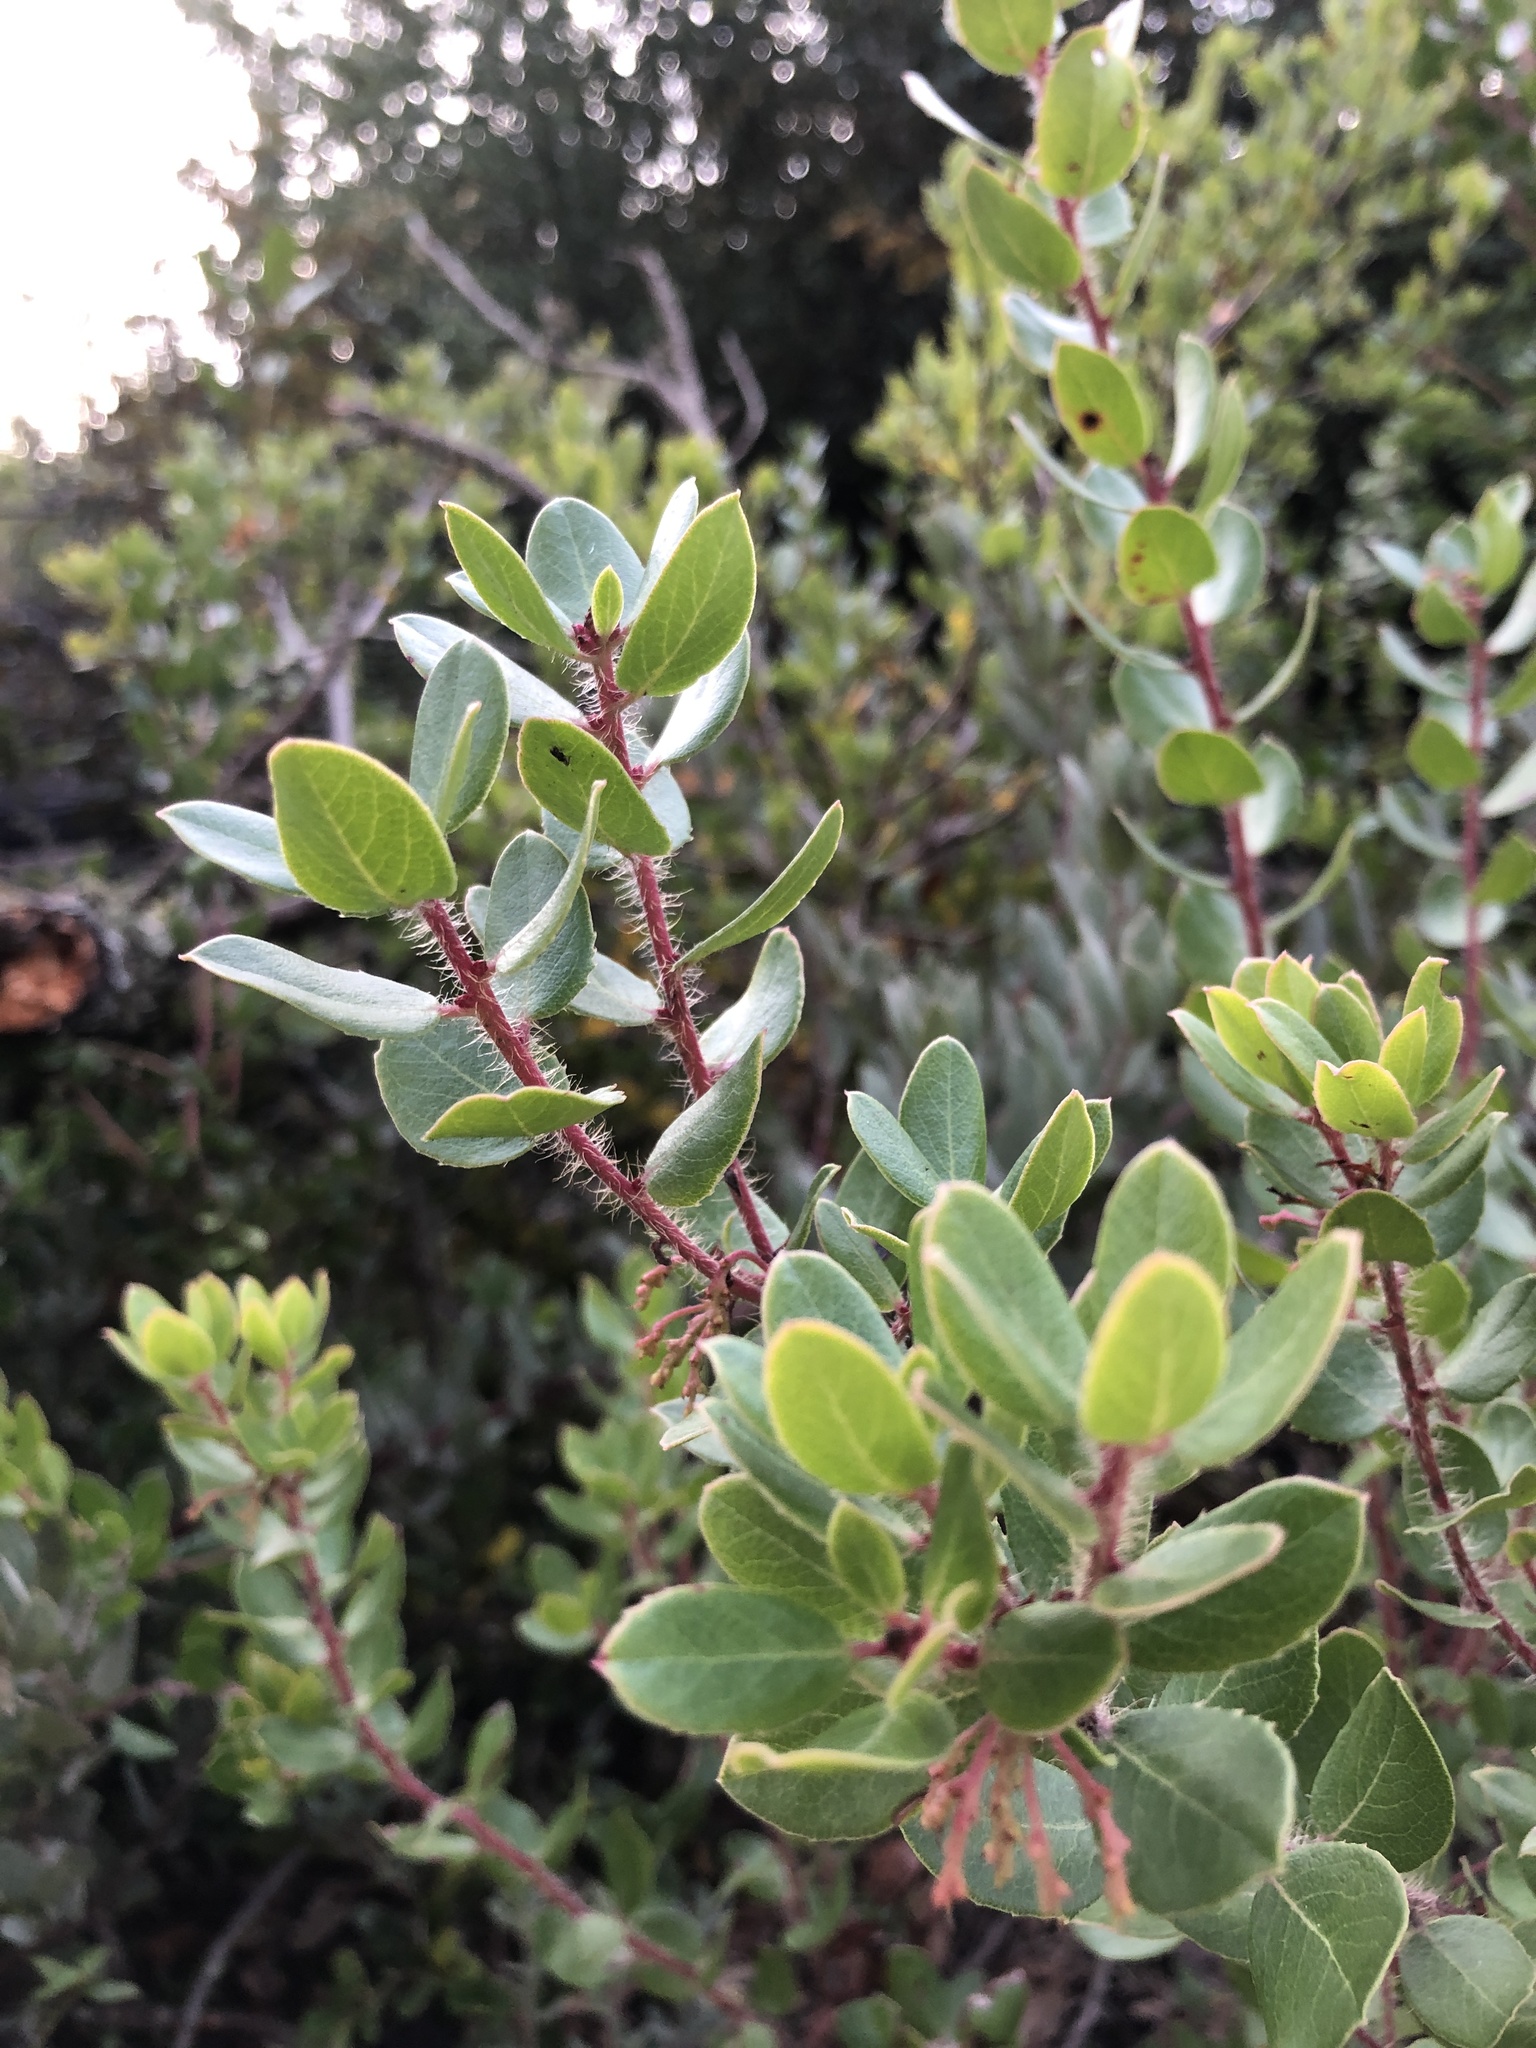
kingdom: Plantae
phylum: Tracheophyta
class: Magnoliopsida
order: Ericales
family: Ericaceae
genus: Arctostaphylos
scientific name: Arctostaphylos nummularia
